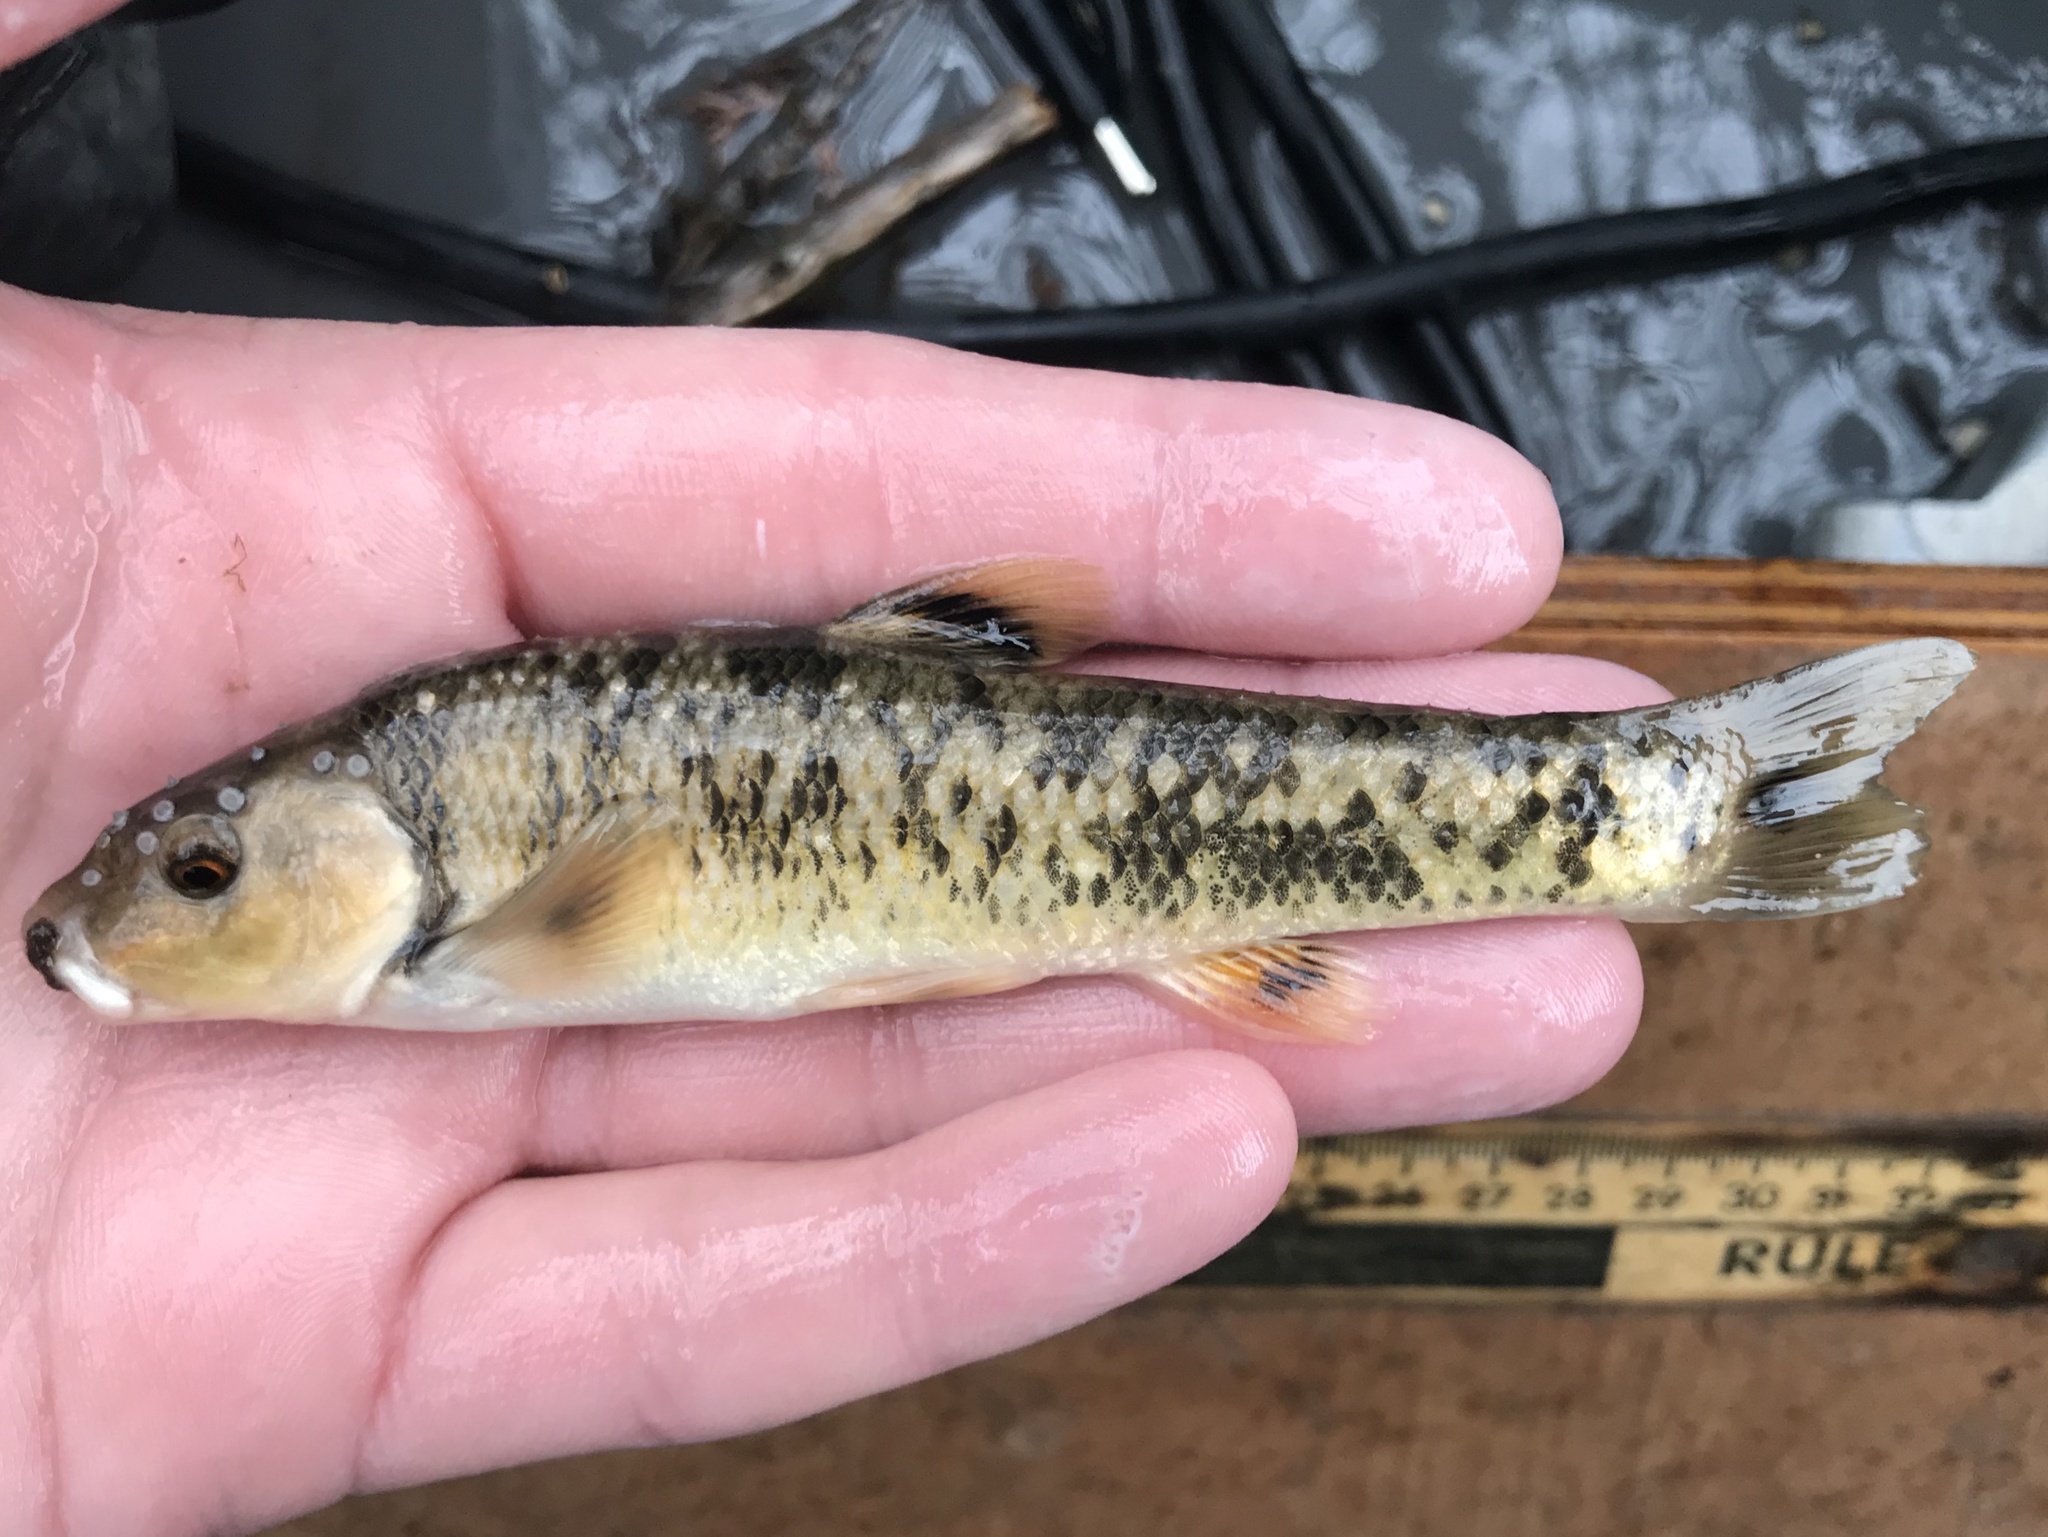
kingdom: Animalia
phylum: Chordata
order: Cypriniformes
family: Cyprinidae
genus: Campostoma
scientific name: Campostoma anomalum
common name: Central stoneroller
